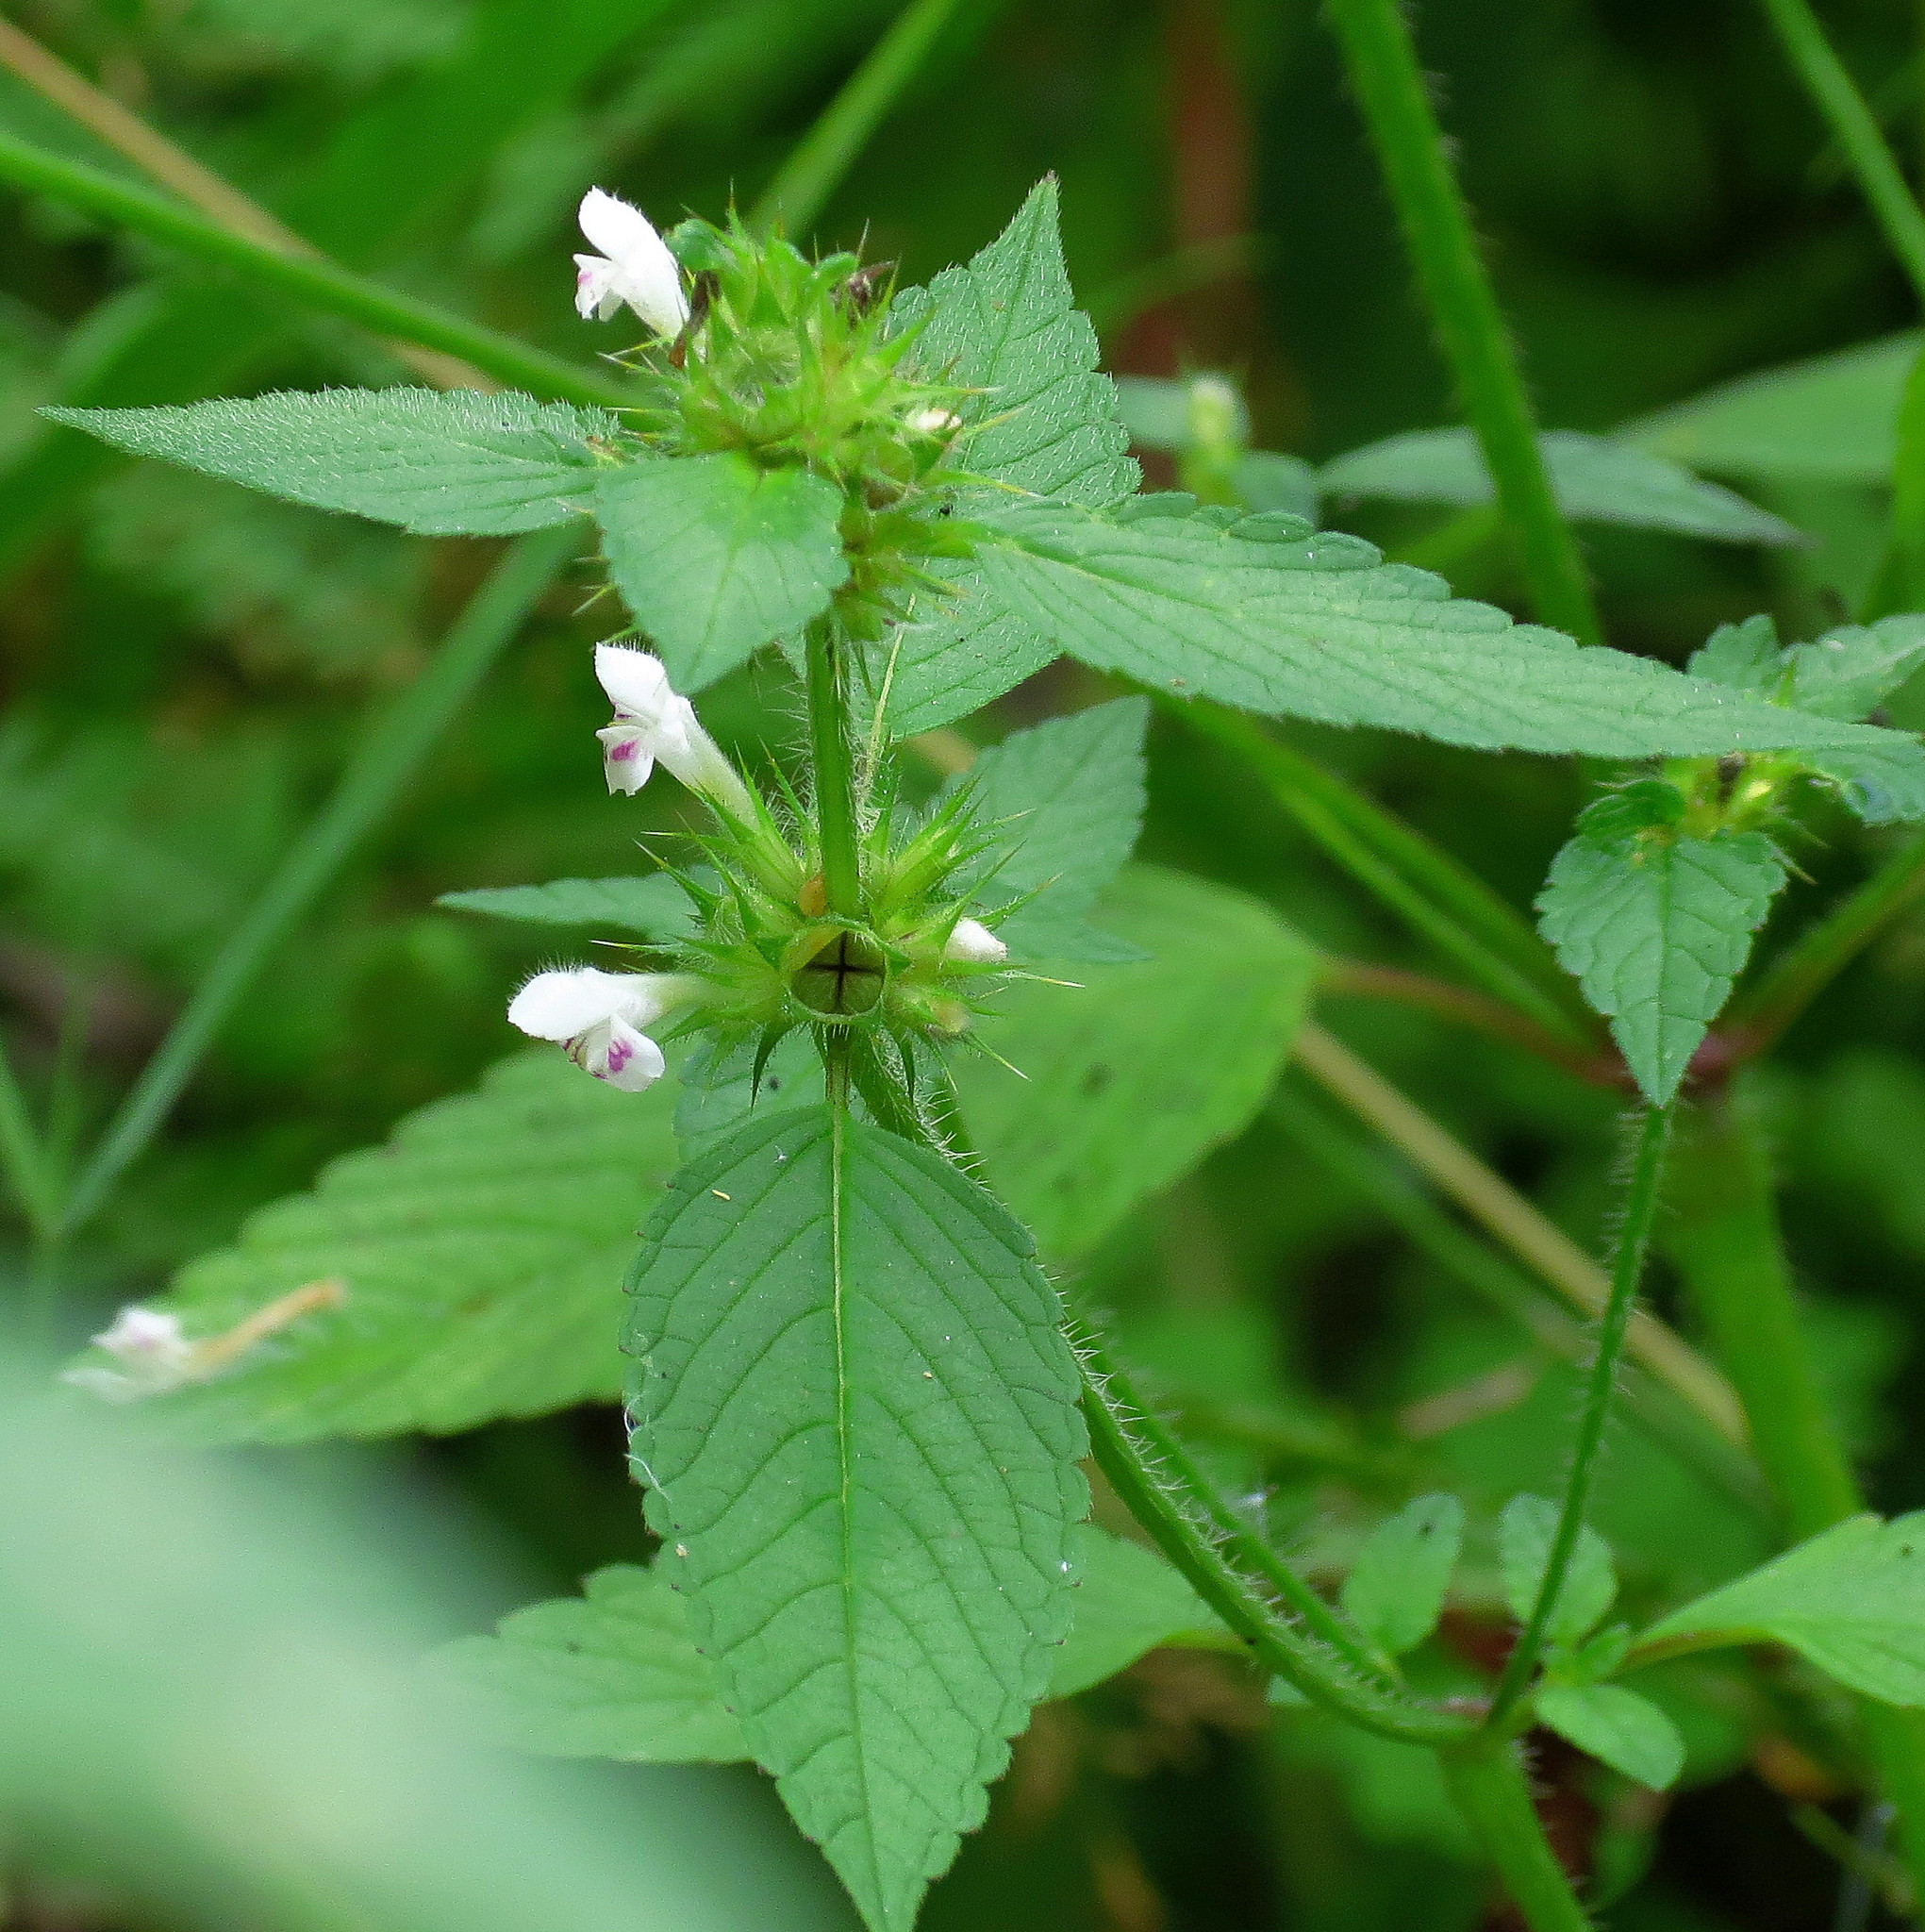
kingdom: Plantae
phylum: Tracheophyta
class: Magnoliopsida
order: Lamiales
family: Lamiaceae
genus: Galeopsis
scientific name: Galeopsis tetrahit
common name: Common hemp-nettle
